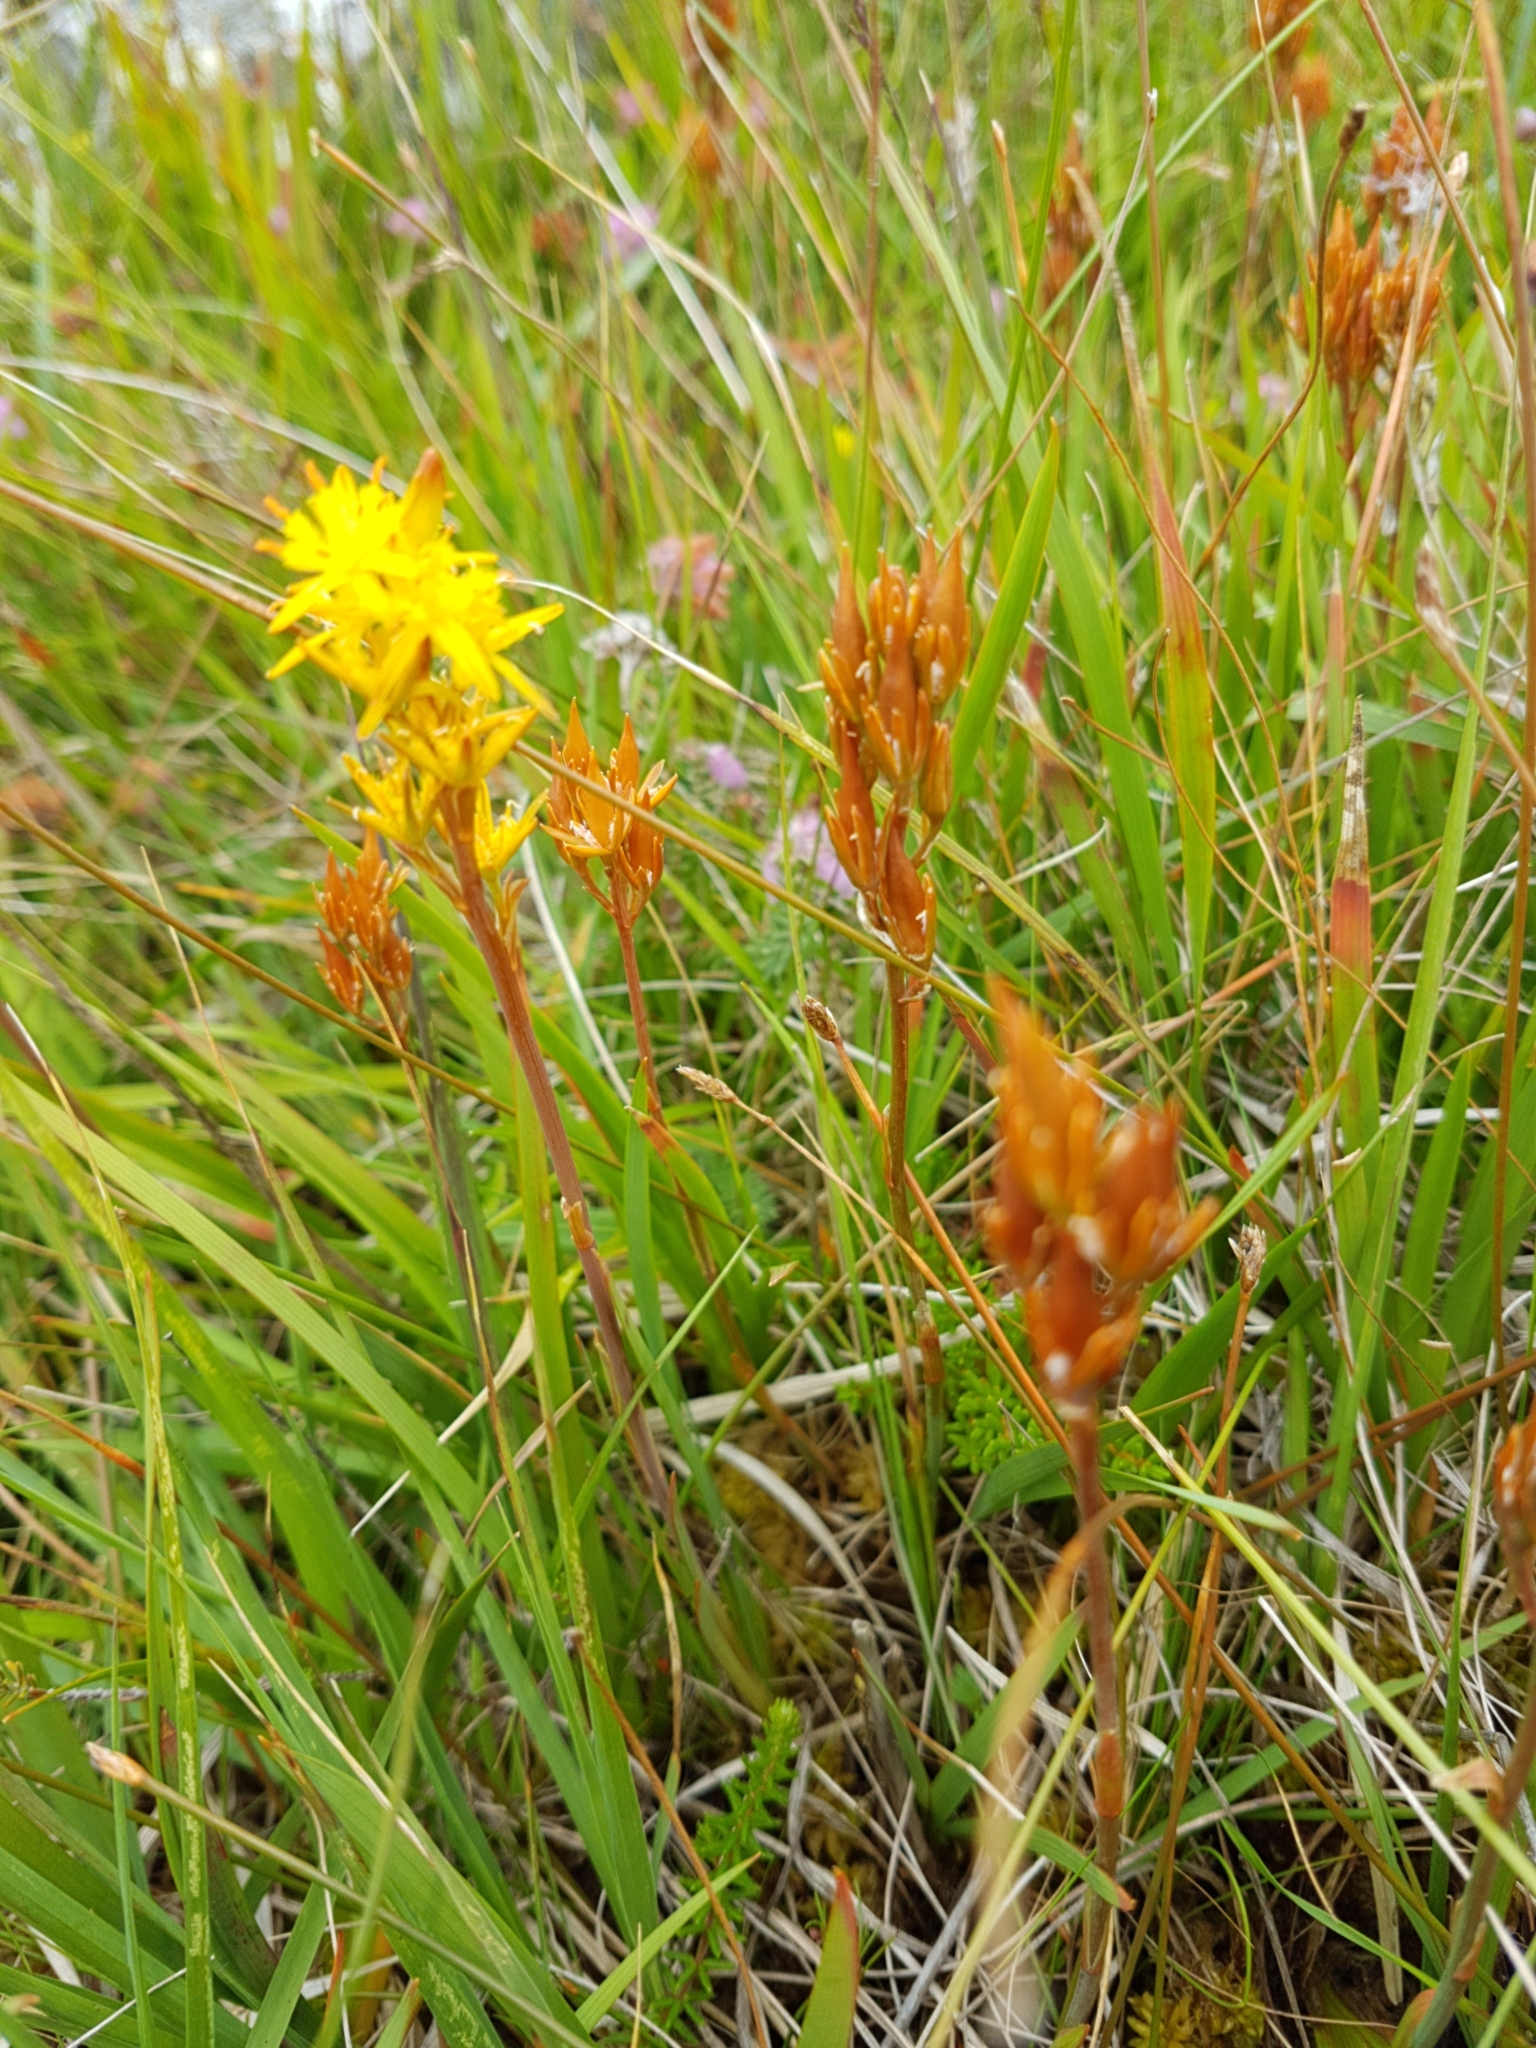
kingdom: Plantae
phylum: Tracheophyta
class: Liliopsida
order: Dioscoreales
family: Nartheciaceae
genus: Narthecium
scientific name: Narthecium ossifragum
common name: Bog asphodel
